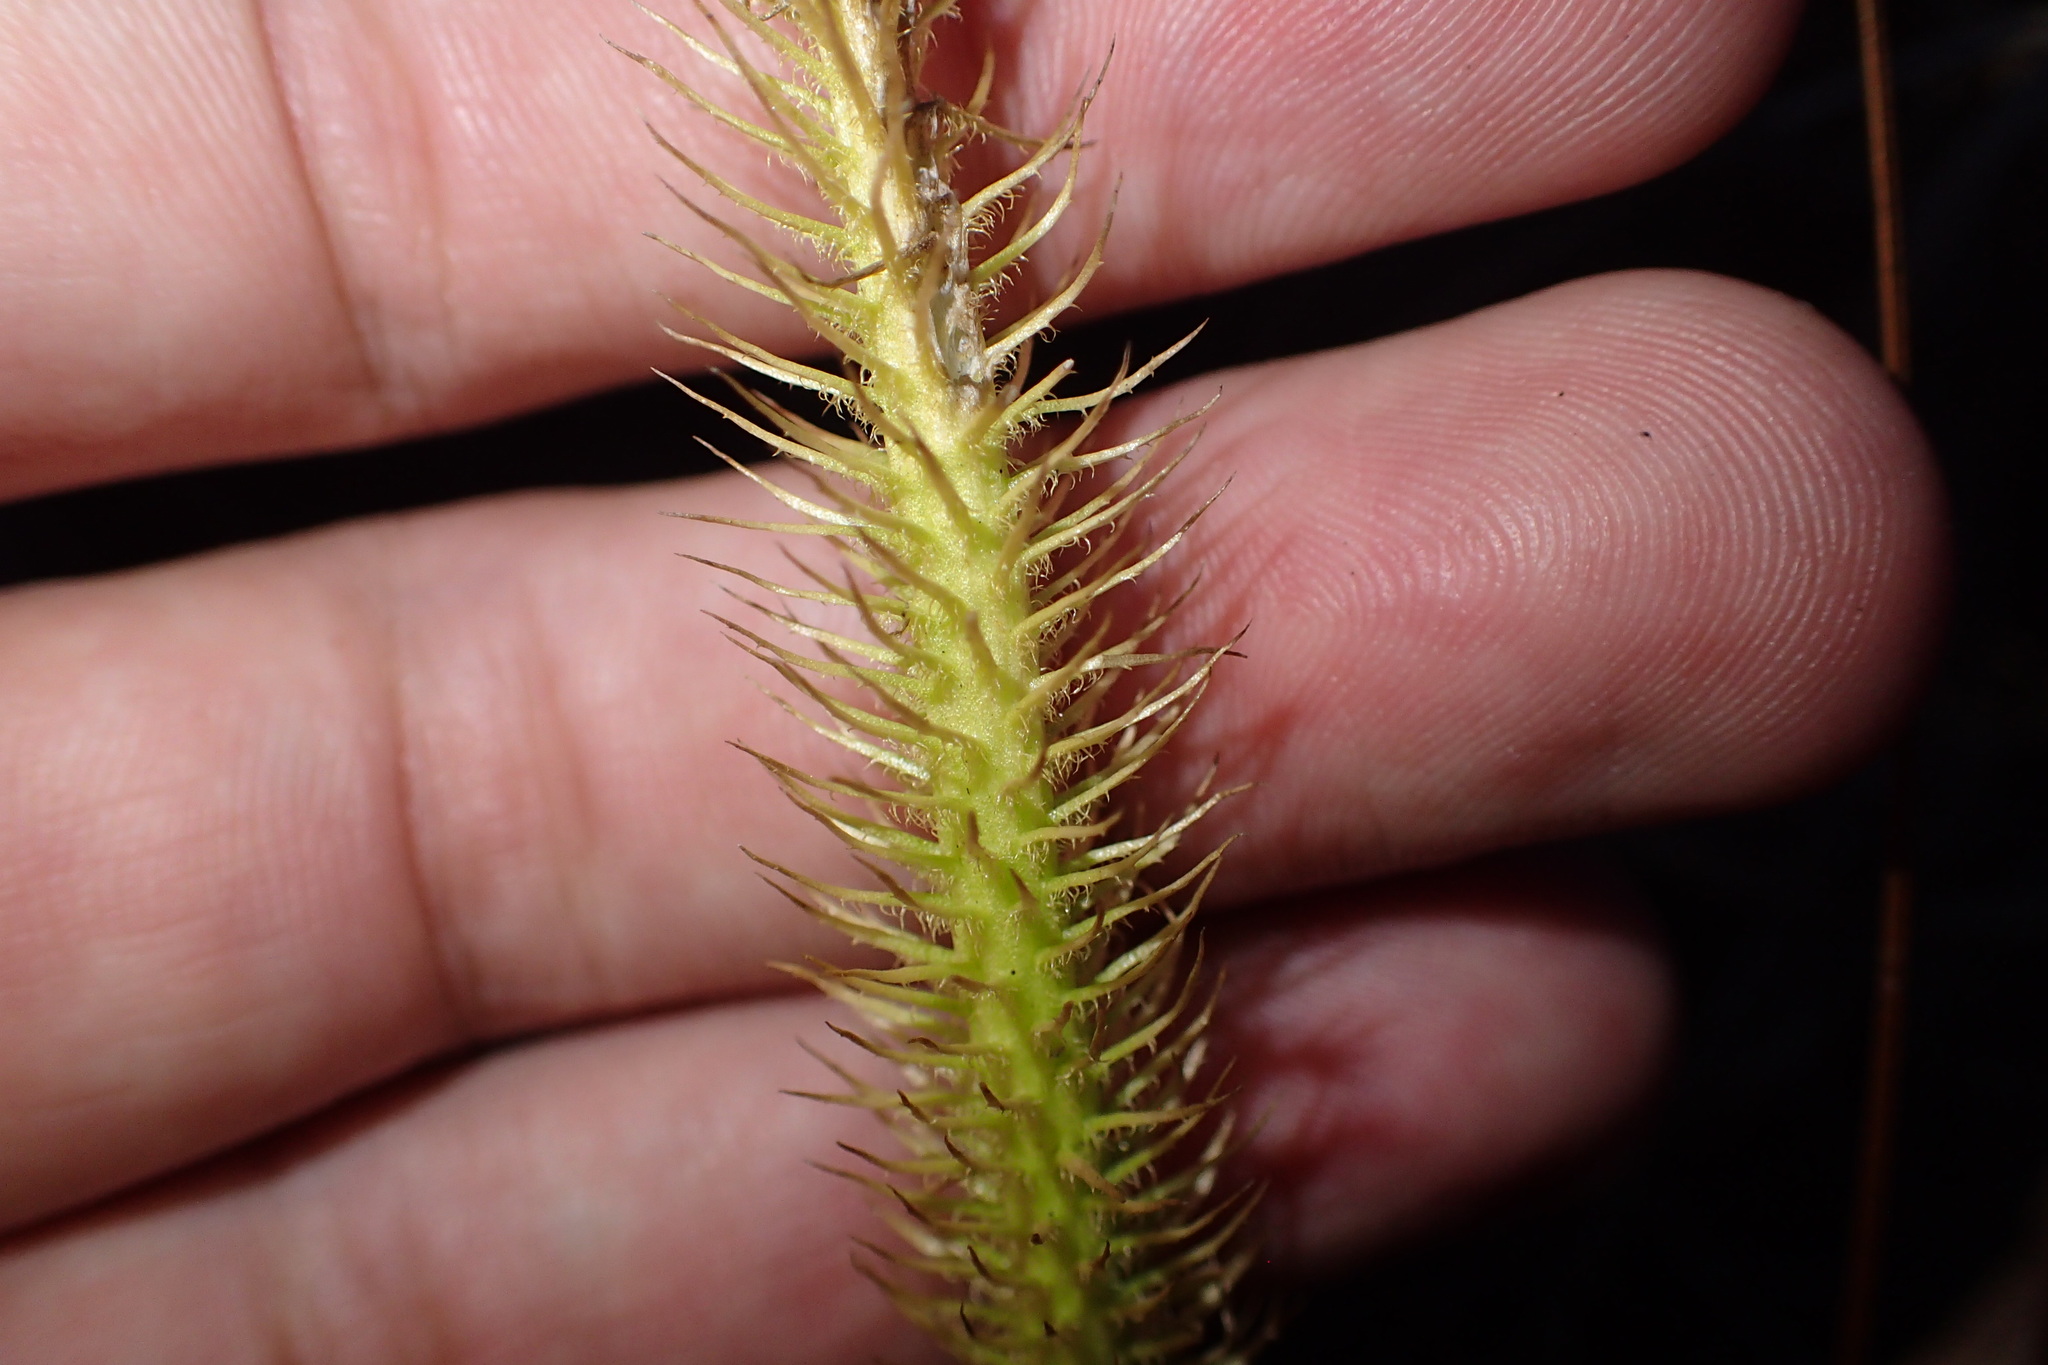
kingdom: Plantae
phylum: Tracheophyta
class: Lycopodiopsida
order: Lycopodiales
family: Lycopodiaceae
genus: Lycopodiella
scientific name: Lycopodiella alopecuroides
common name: Foxtail clubmoss
